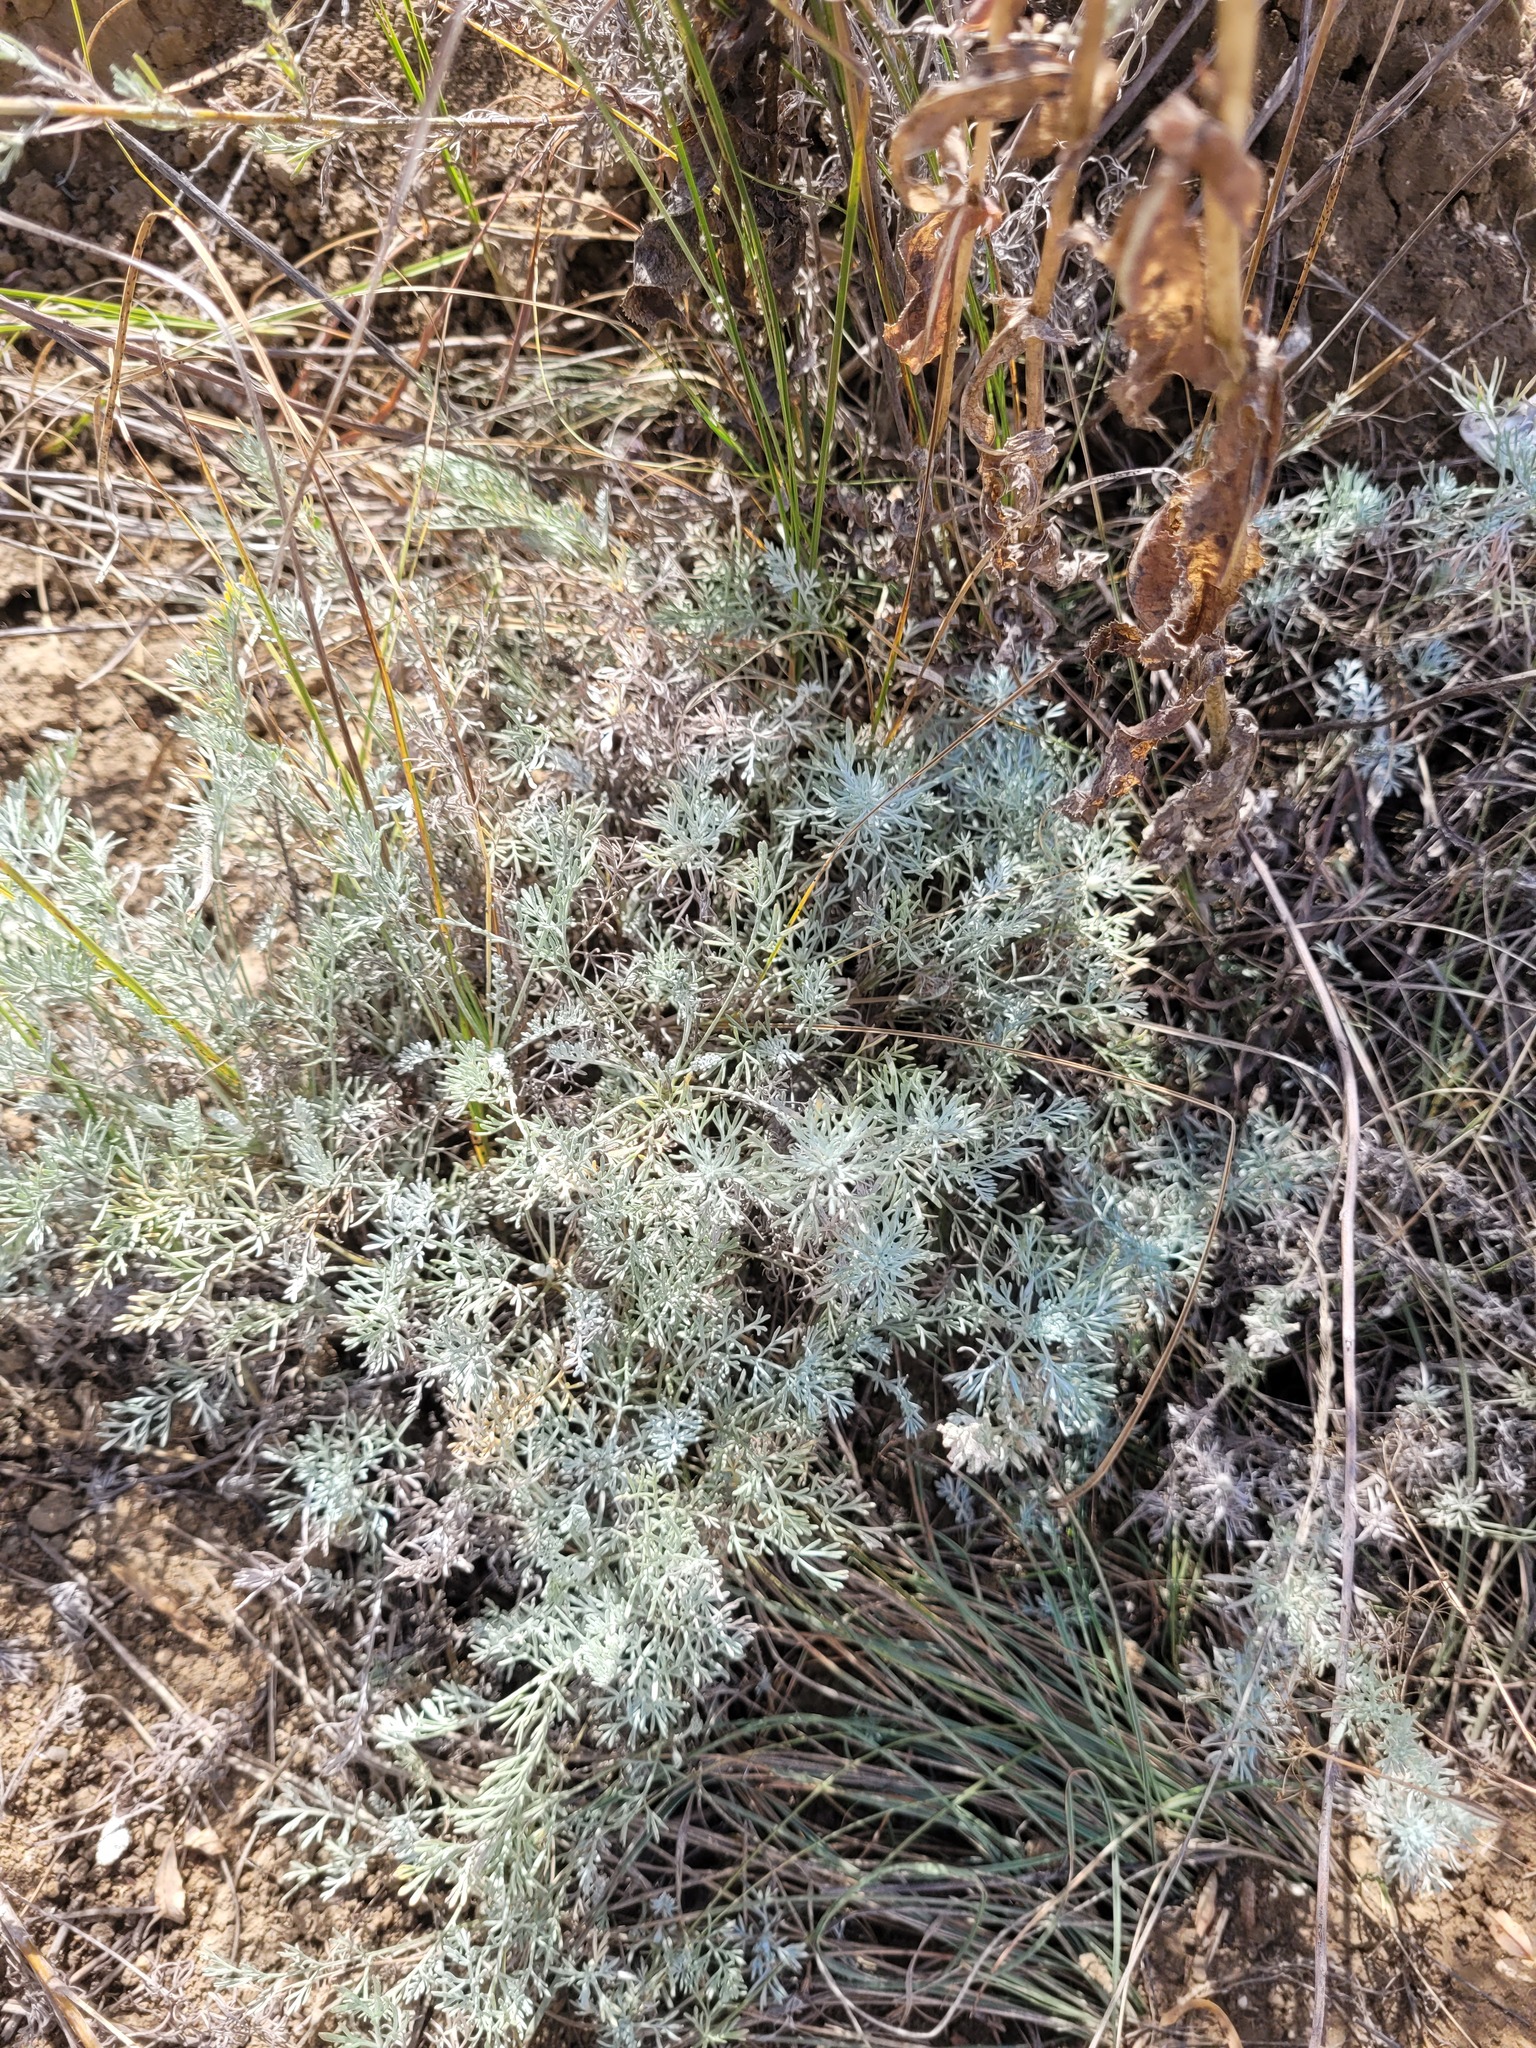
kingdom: Plantae
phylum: Tracheophyta
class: Magnoliopsida
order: Asterales
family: Asteraceae
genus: Artemisia
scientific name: Artemisia lercheana
